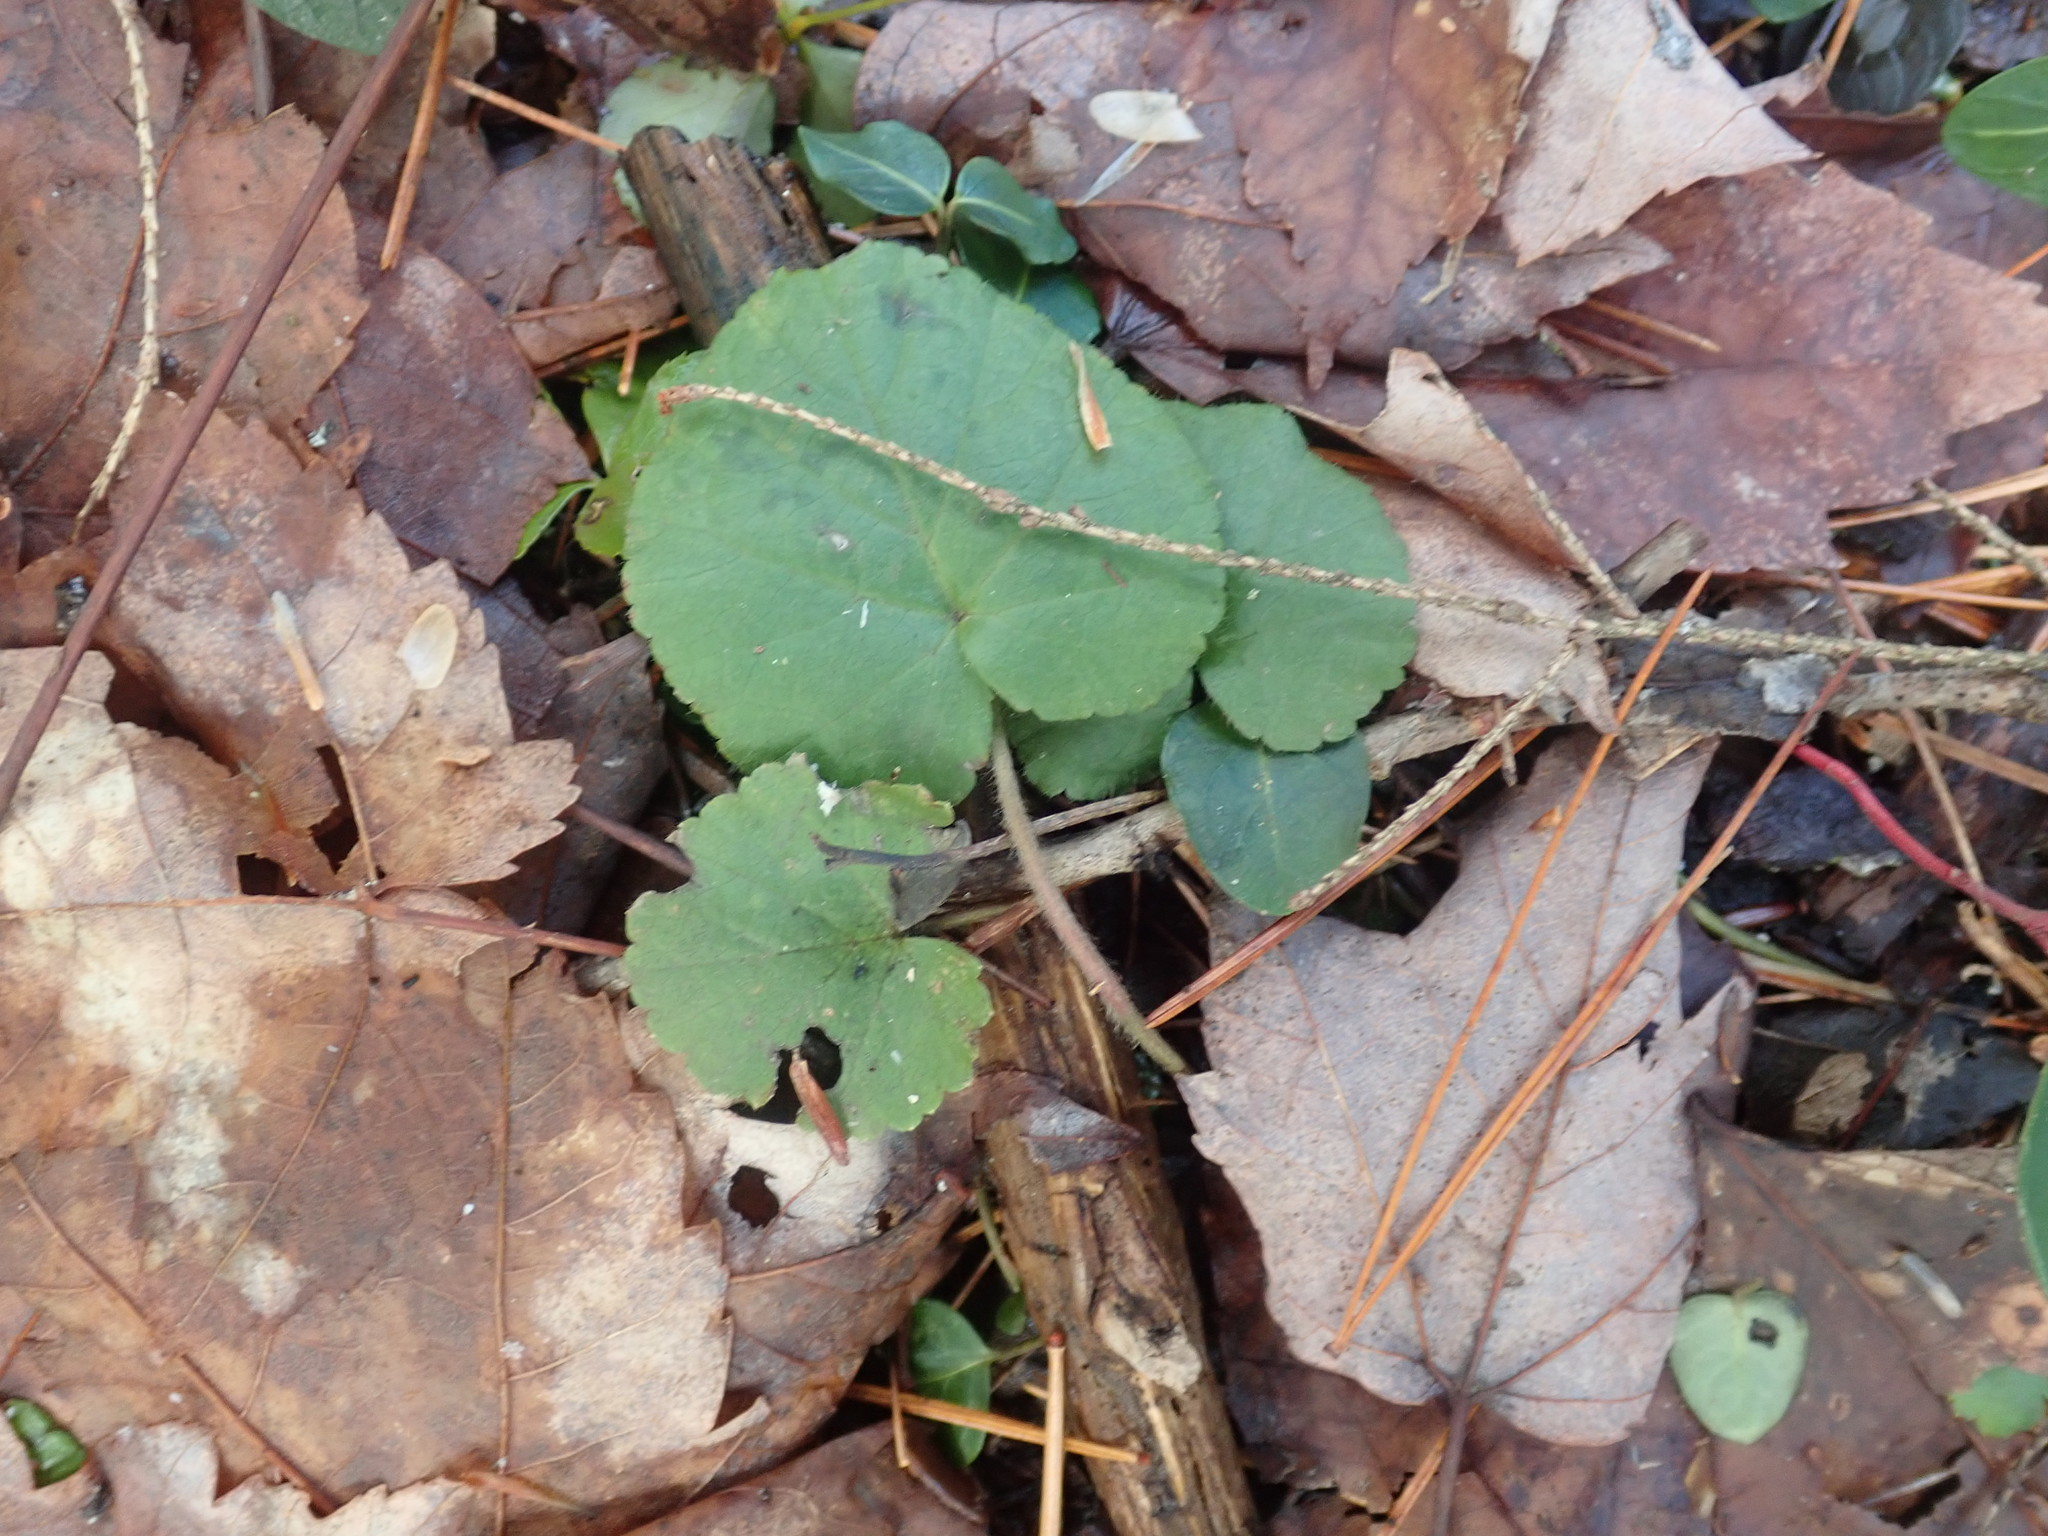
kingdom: Plantae
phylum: Tracheophyta
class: Magnoliopsida
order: Rosales
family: Rosaceae
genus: Dalibarda
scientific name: Dalibarda repens
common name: Dewdrop
